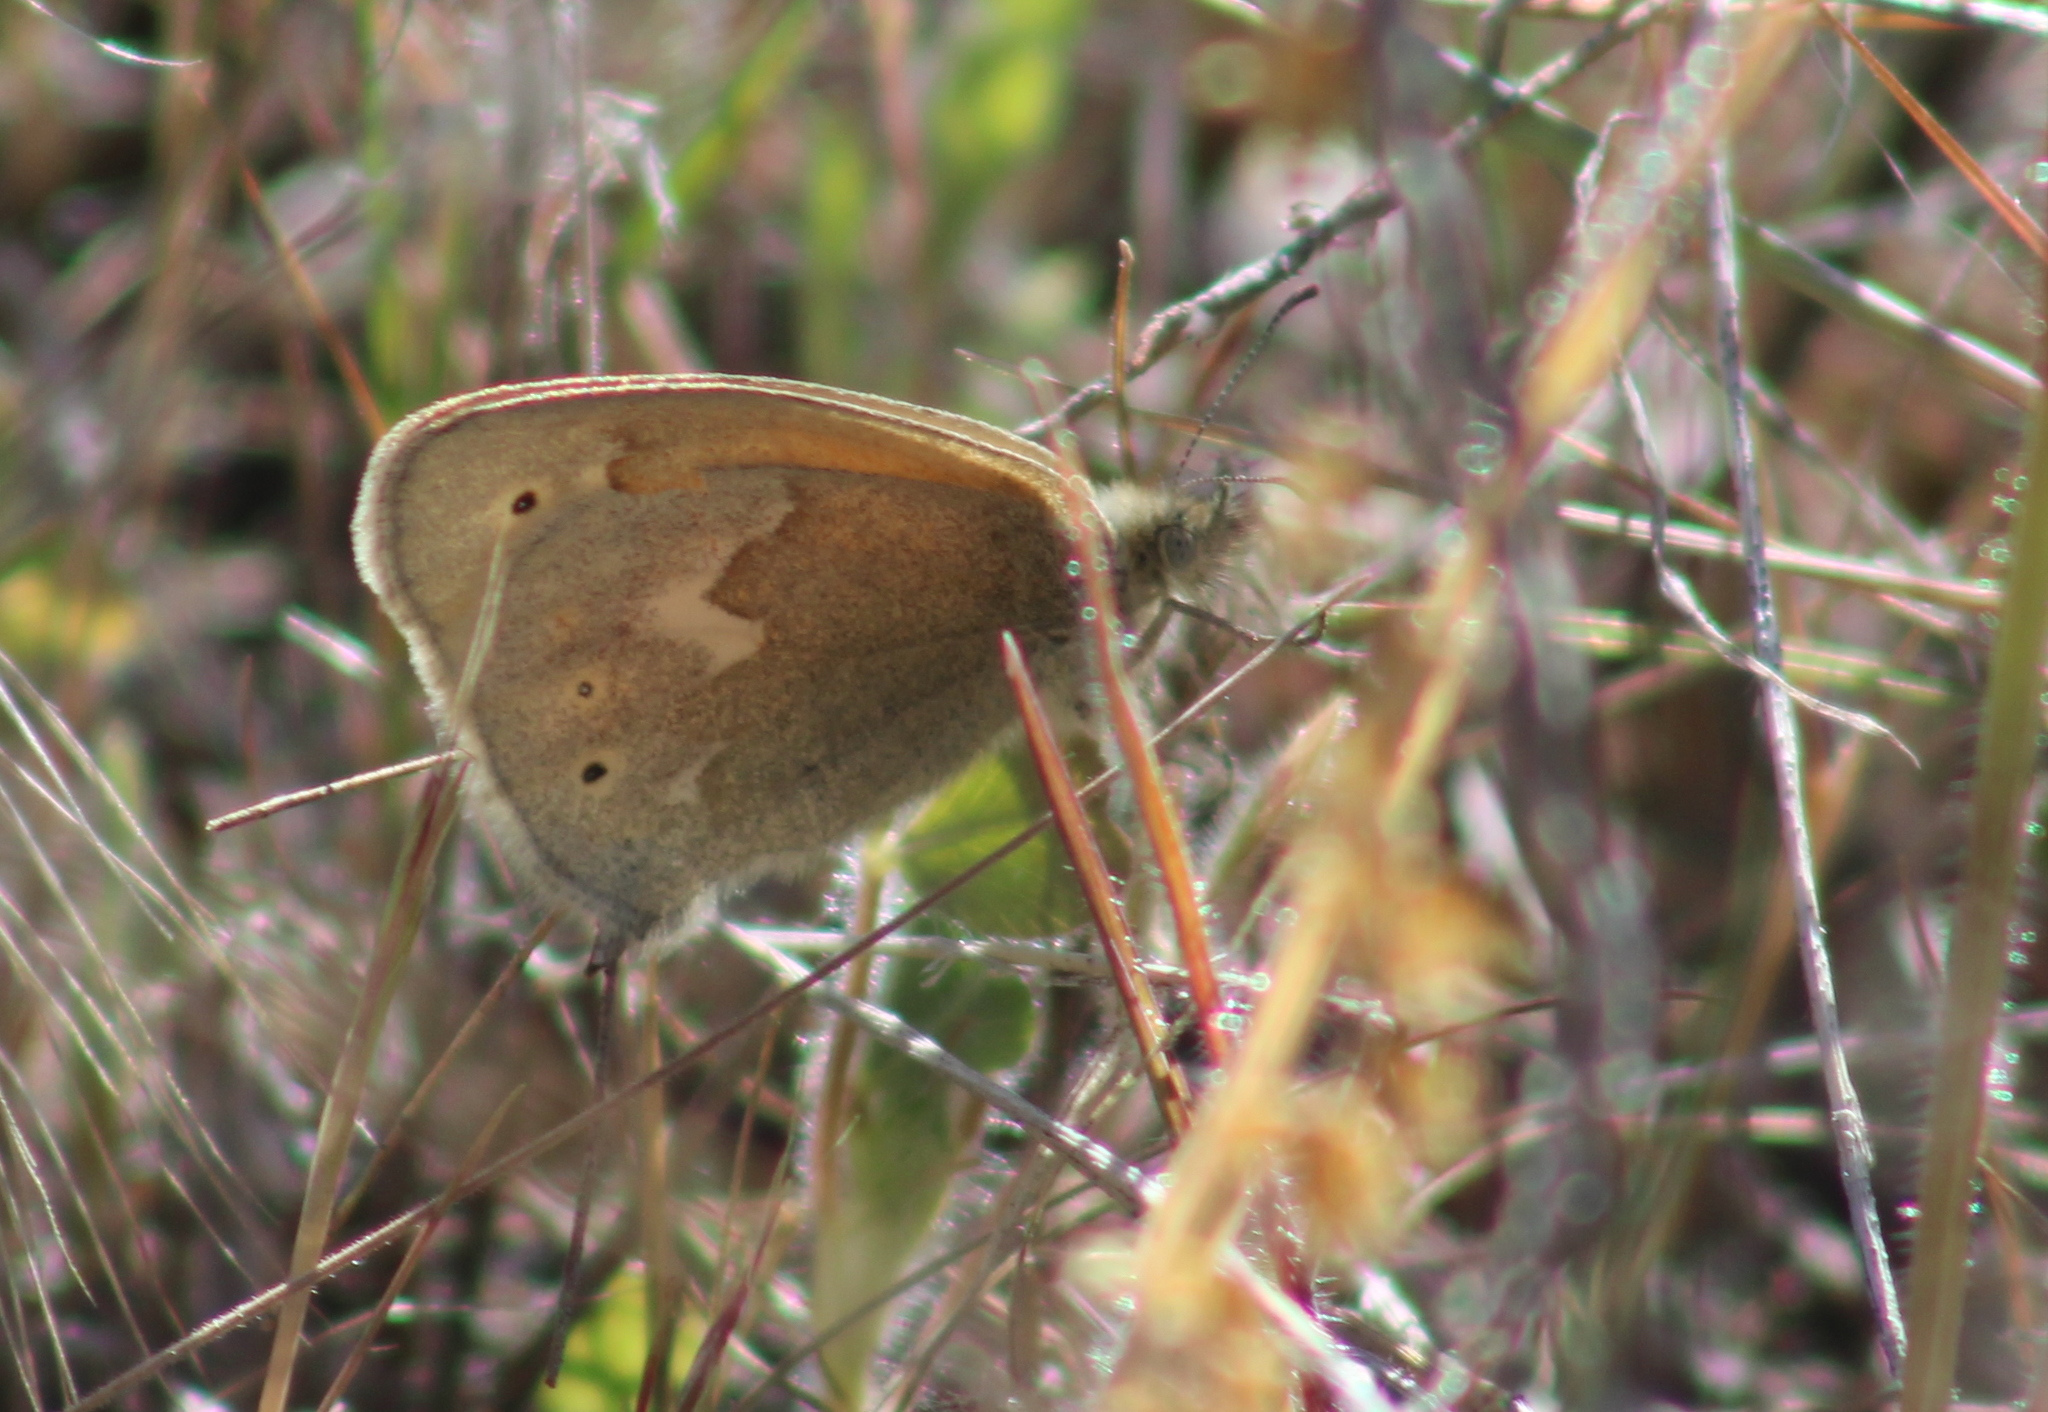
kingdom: Animalia
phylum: Arthropoda
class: Insecta
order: Lepidoptera
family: Nymphalidae
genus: Coenonympha
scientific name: Coenonympha california
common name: Common ringlet
